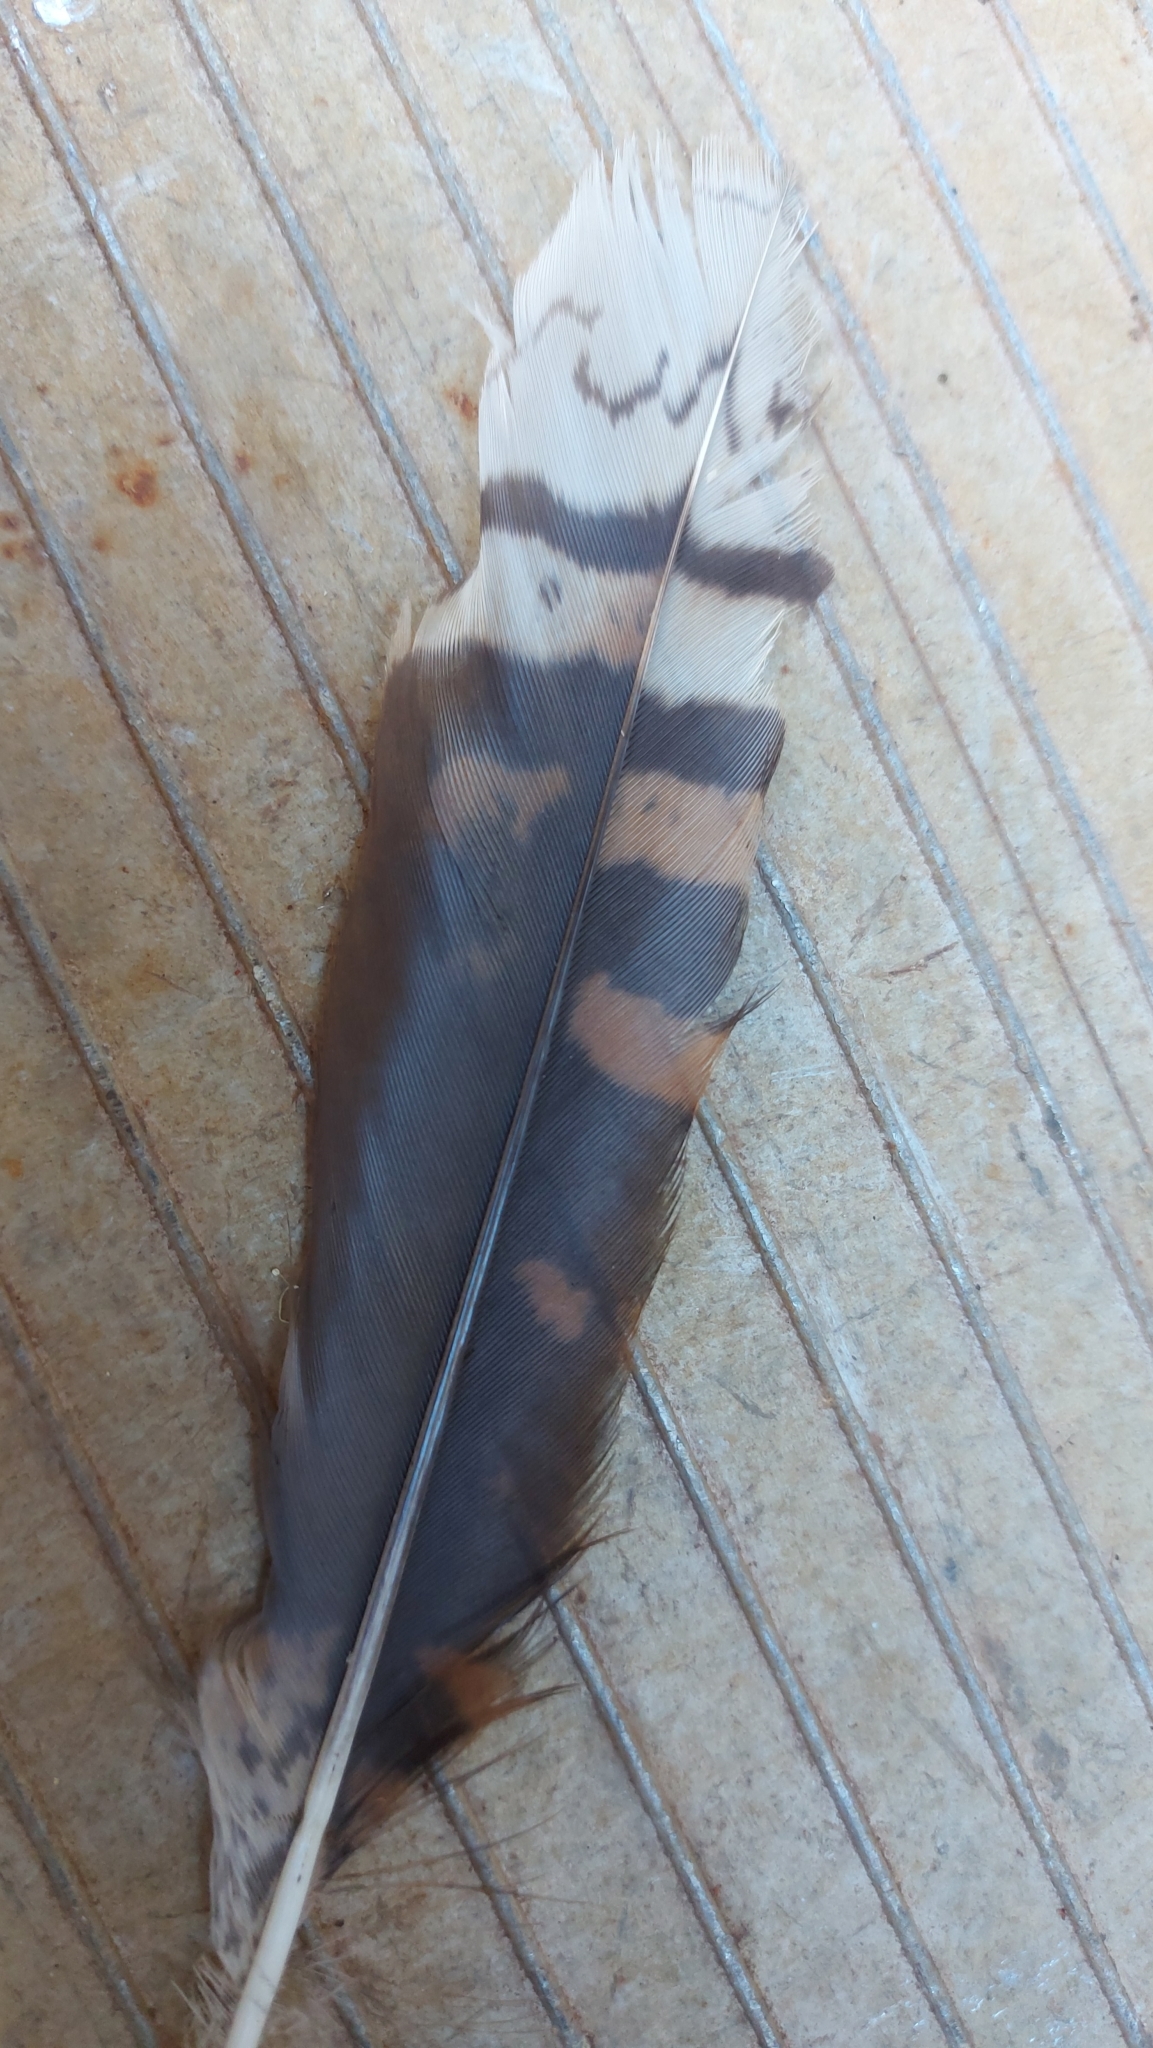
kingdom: Animalia
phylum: Chordata
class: Aves
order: Coraciiformes
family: Alcedinidae
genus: Dacelo
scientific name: Dacelo novaeguineae
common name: Laughing kookaburra
